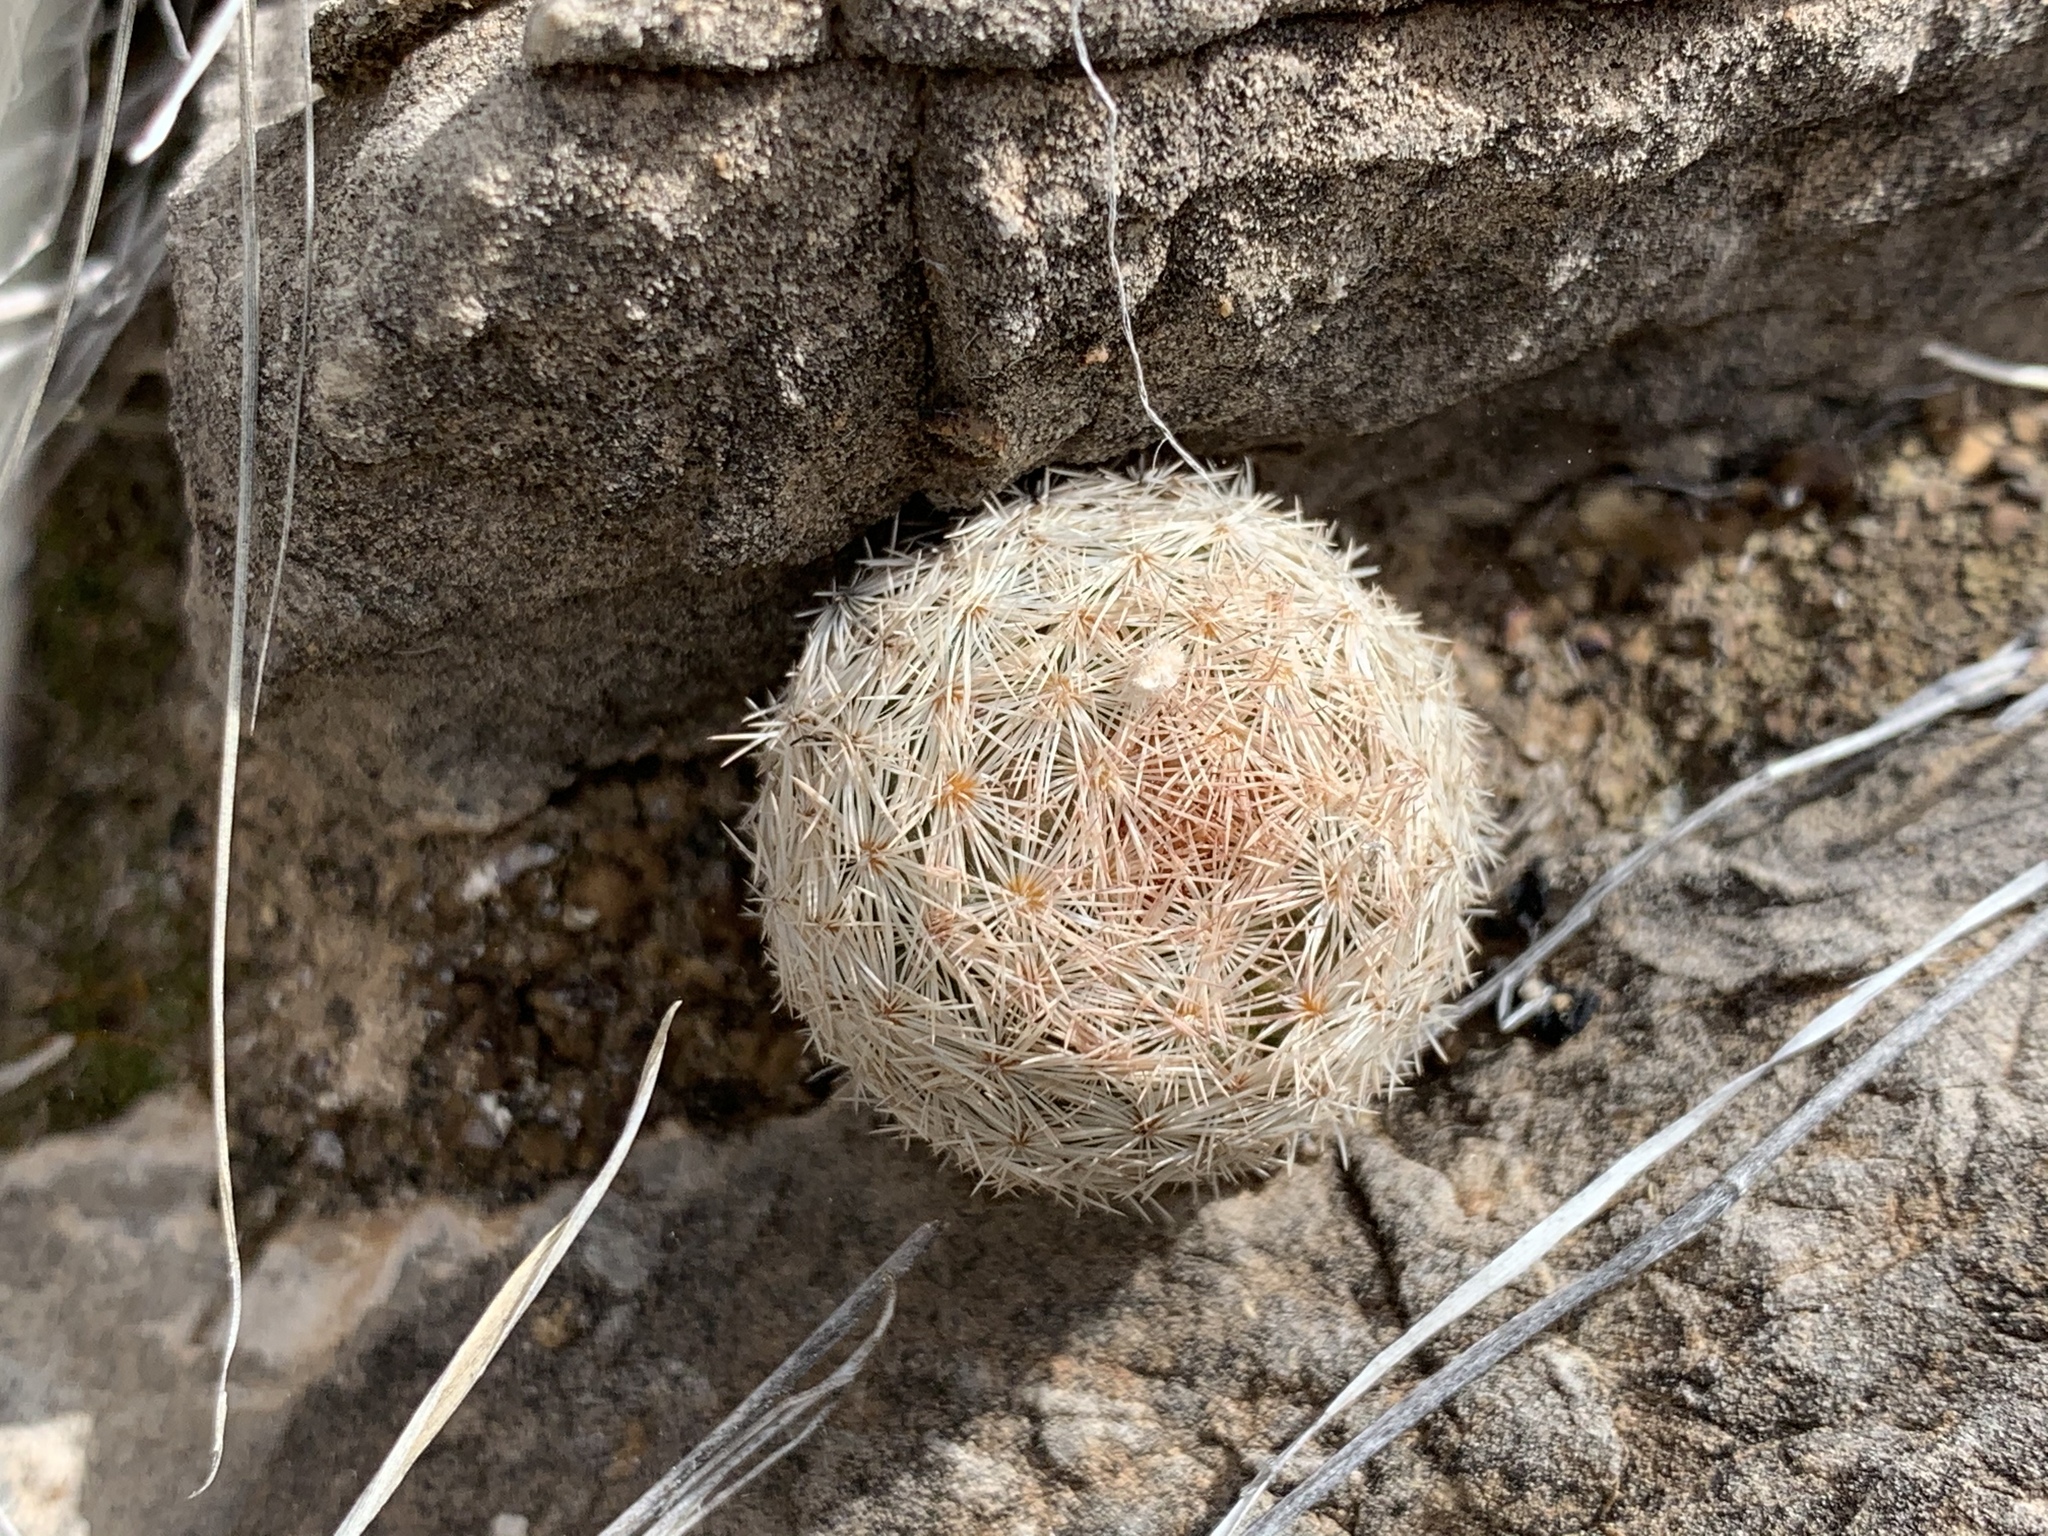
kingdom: Plantae
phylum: Tracheophyta
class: Magnoliopsida
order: Caryophyllales
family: Cactaceae
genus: Mammillaria
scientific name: Mammillaria lasiacantha
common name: Lace-spine nipple cactus
